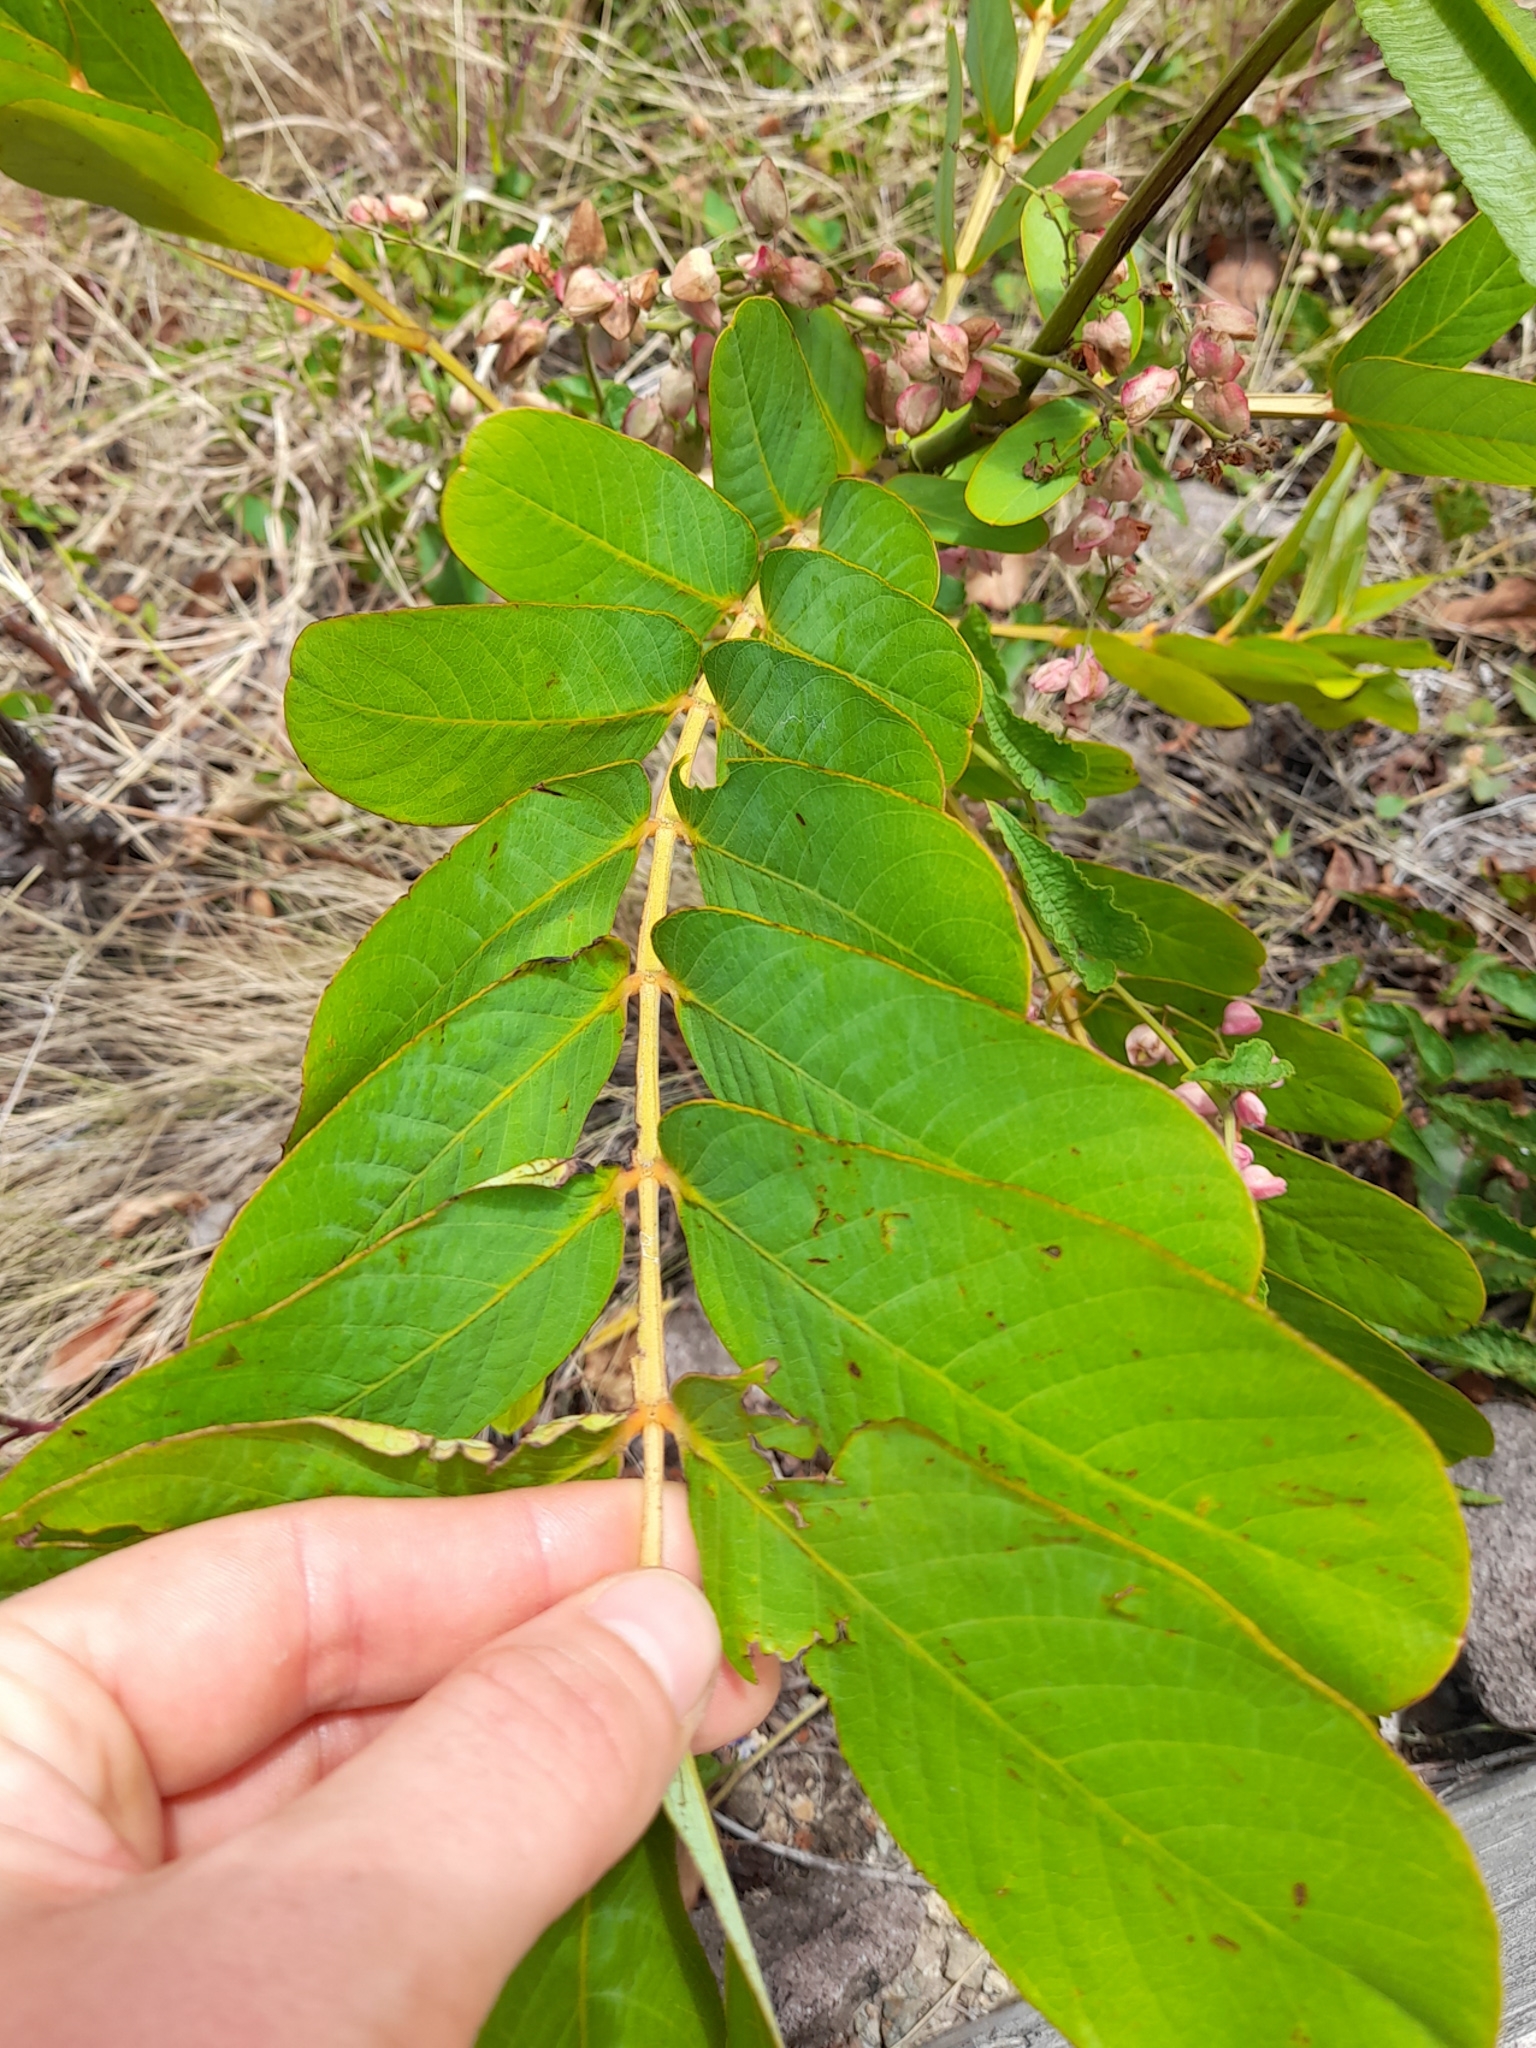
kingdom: Plantae
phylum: Tracheophyta
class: Magnoliopsida
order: Fabales
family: Fabaceae
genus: Senna
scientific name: Senna alata
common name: Emperor's candlesticks
